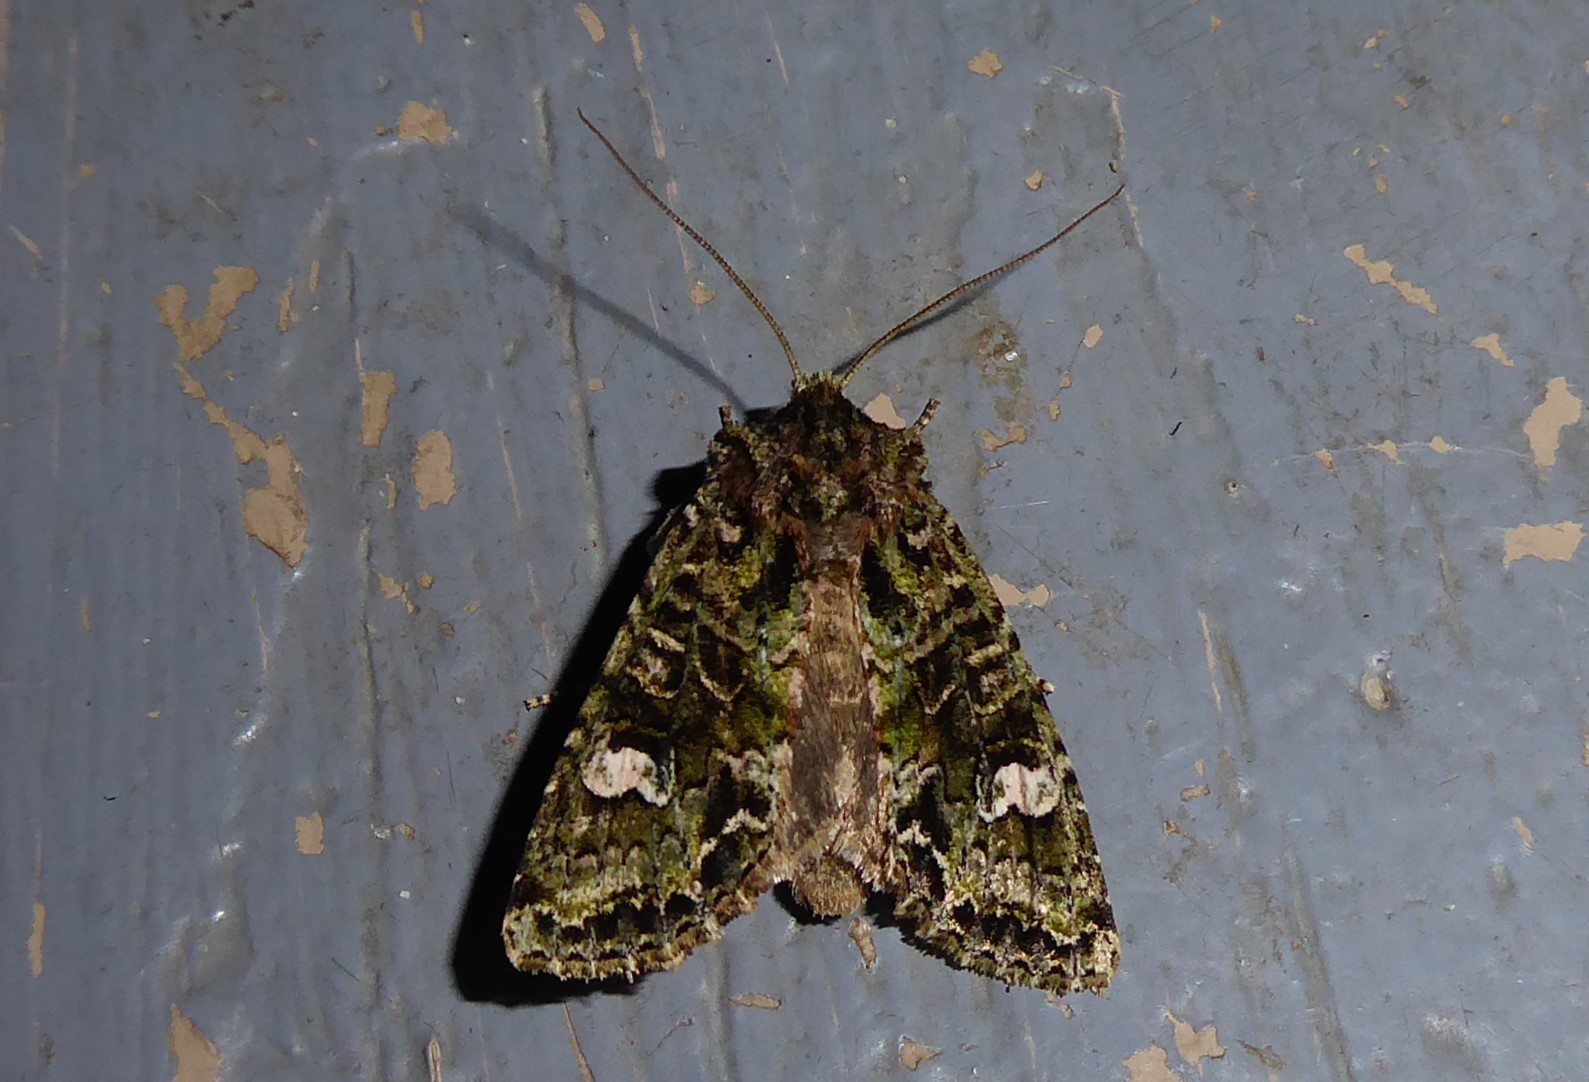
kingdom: Animalia
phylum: Arthropoda
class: Insecta
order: Lepidoptera
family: Noctuidae
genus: Ichneutica
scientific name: Ichneutica
